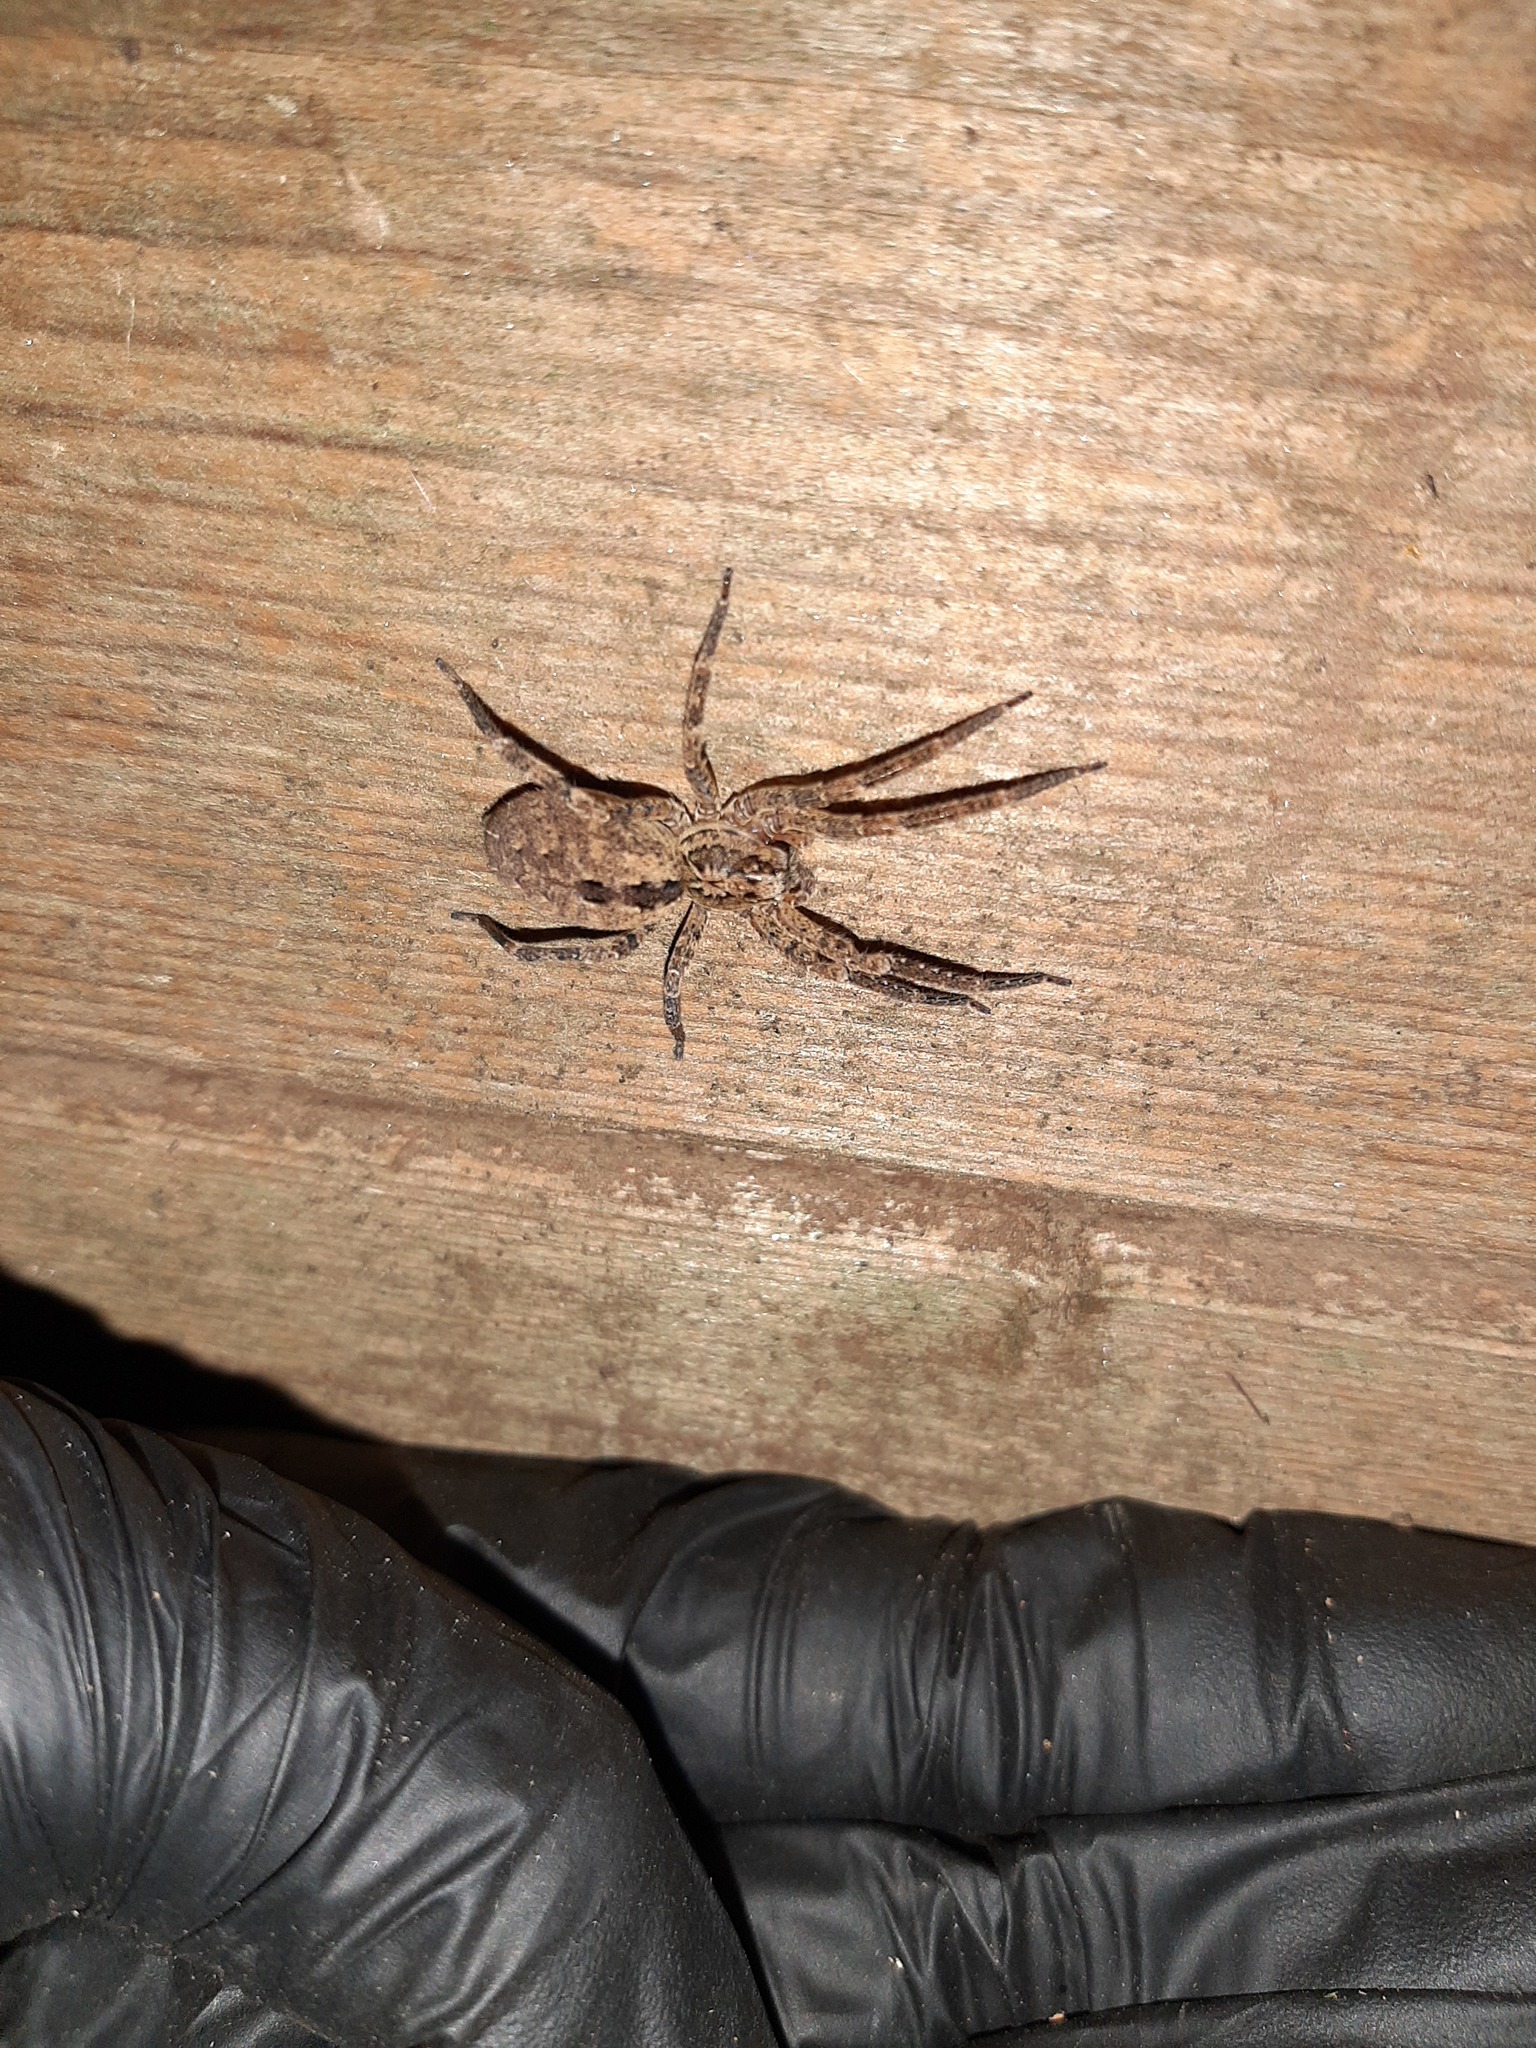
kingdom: Animalia
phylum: Arthropoda
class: Arachnida
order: Araneae
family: Zoropsidae
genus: Zoropsis
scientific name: Zoropsis spinimana
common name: Zoropsid spider
